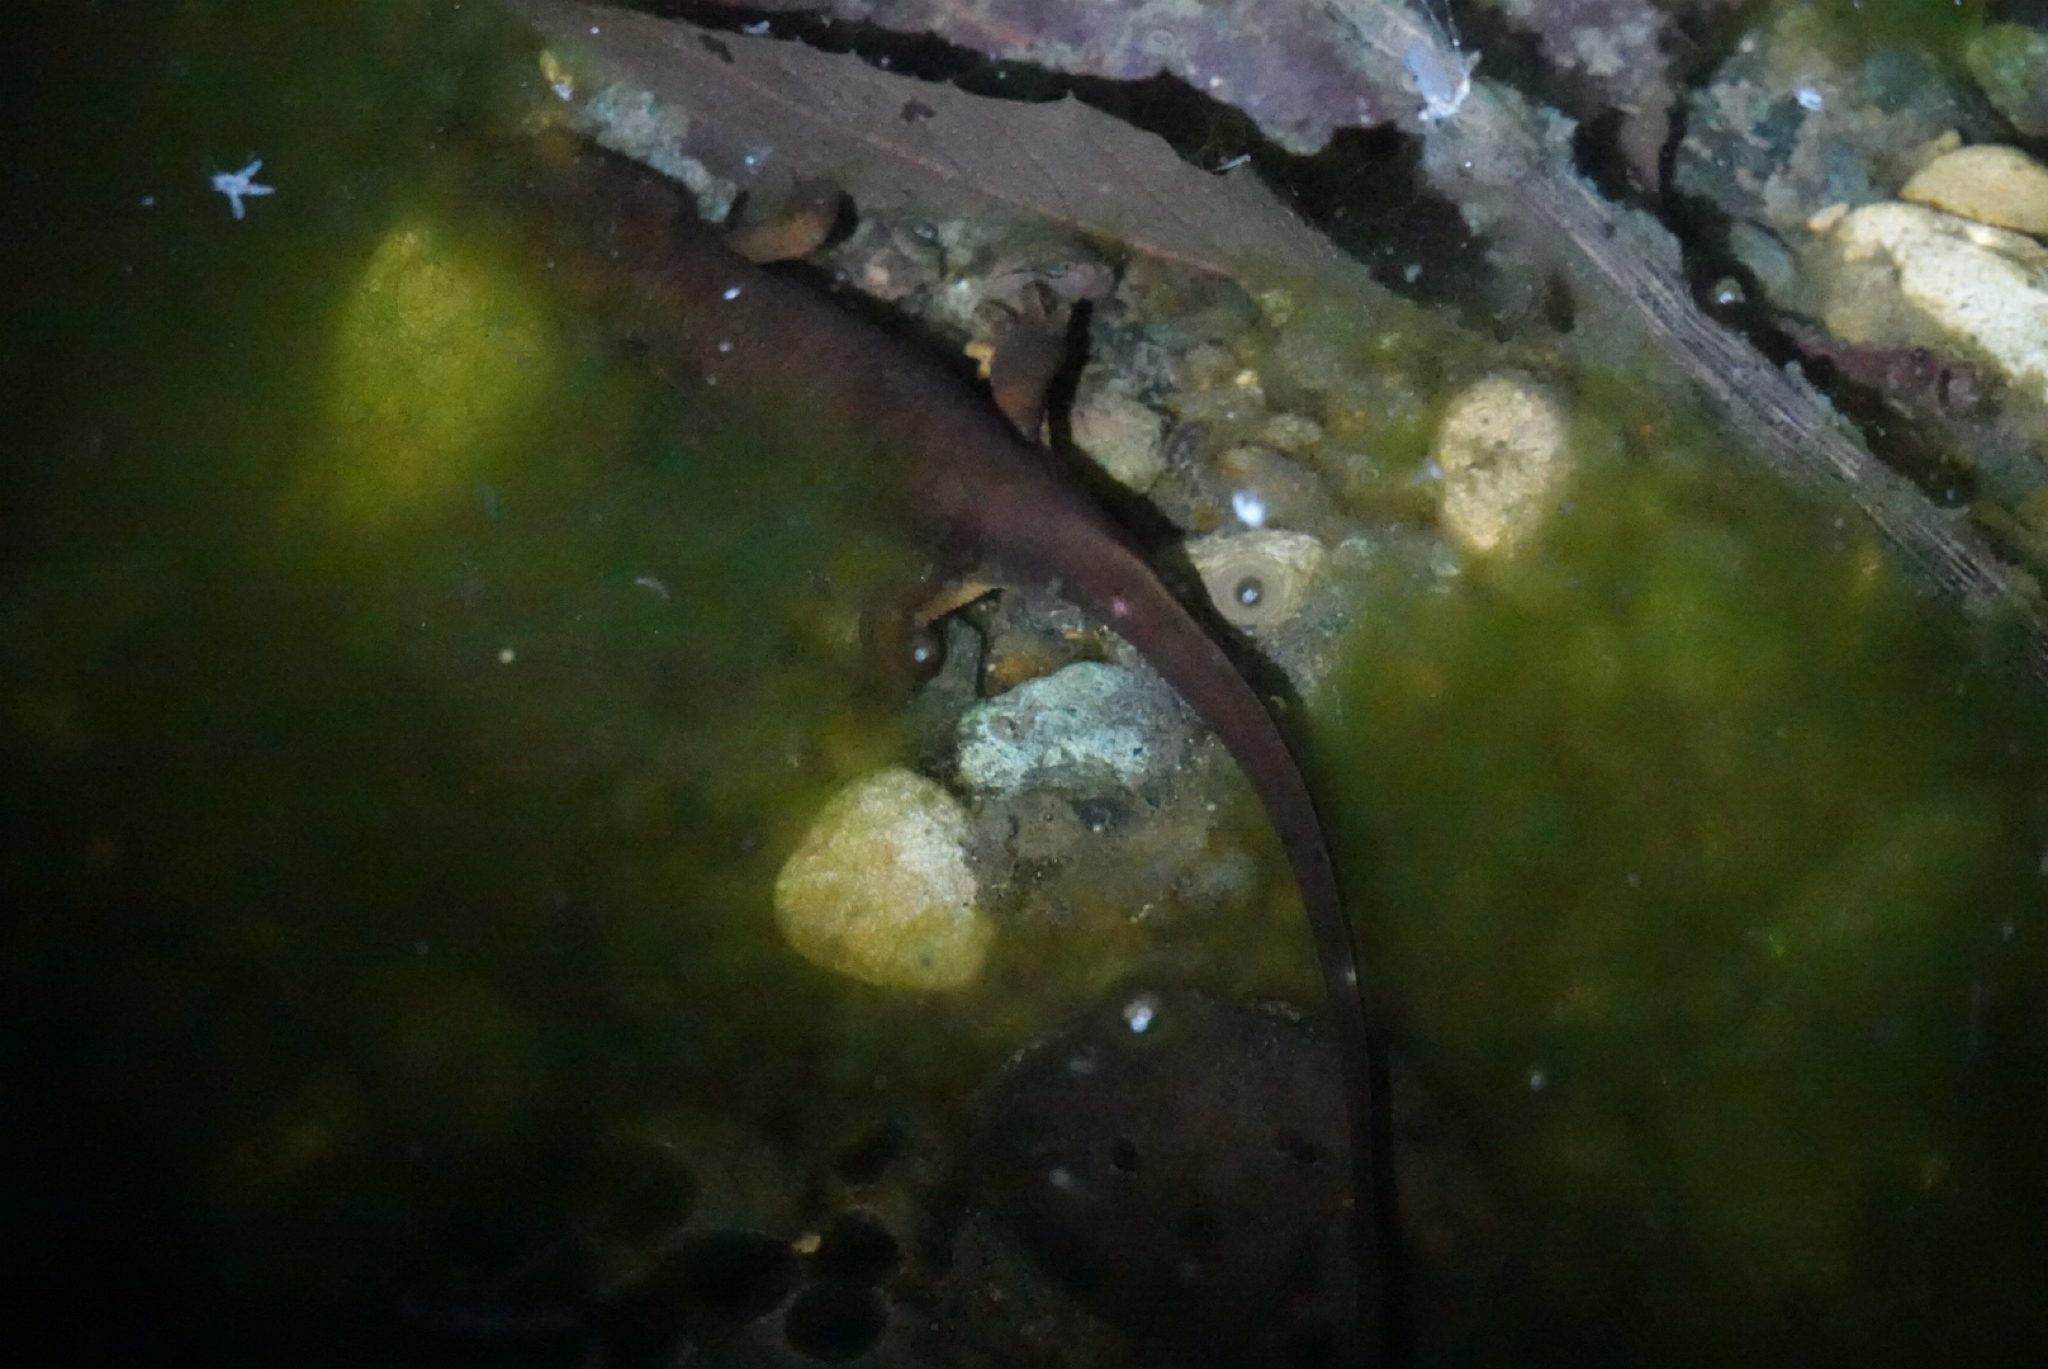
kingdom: Animalia
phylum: Chordata
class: Amphibia
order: Caudata
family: Salamandridae
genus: Taricha
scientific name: Taricha torosa
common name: California newt
